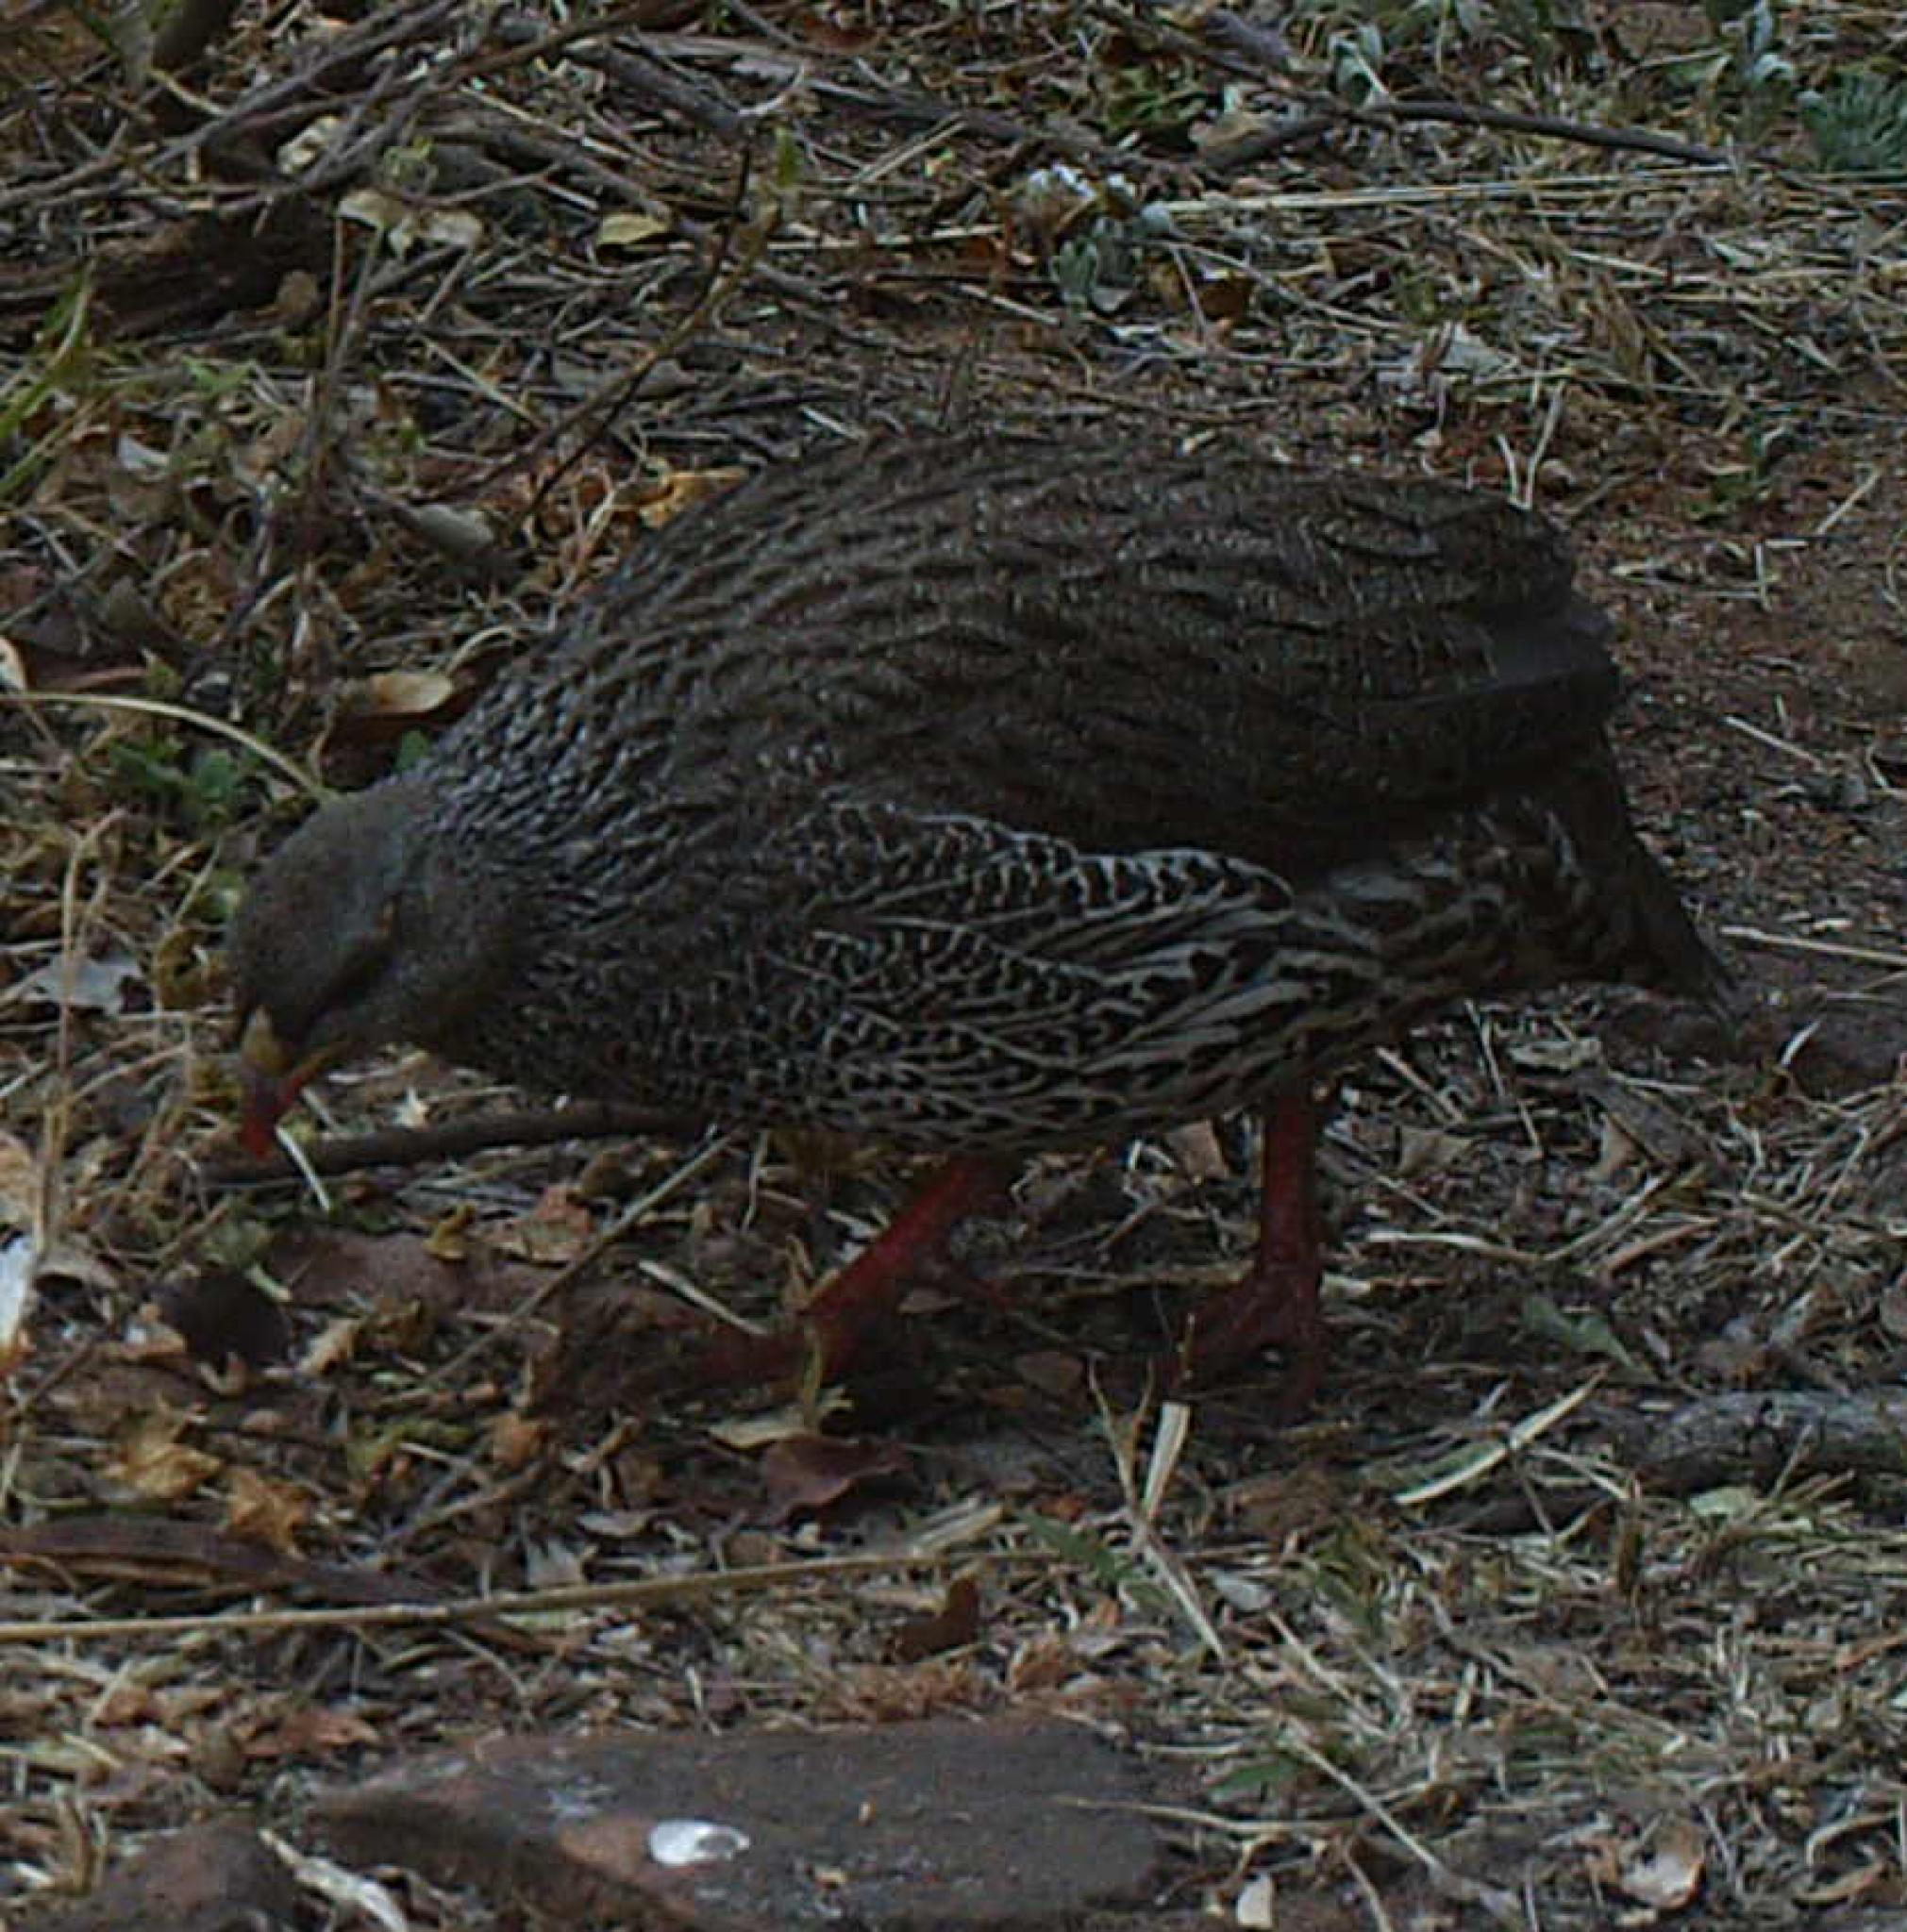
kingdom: Animalia
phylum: Chordata
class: Aves
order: Galliformes
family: Phasianidae
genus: Pternistis
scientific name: Pternistis natalensis
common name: Natal spurfowl
